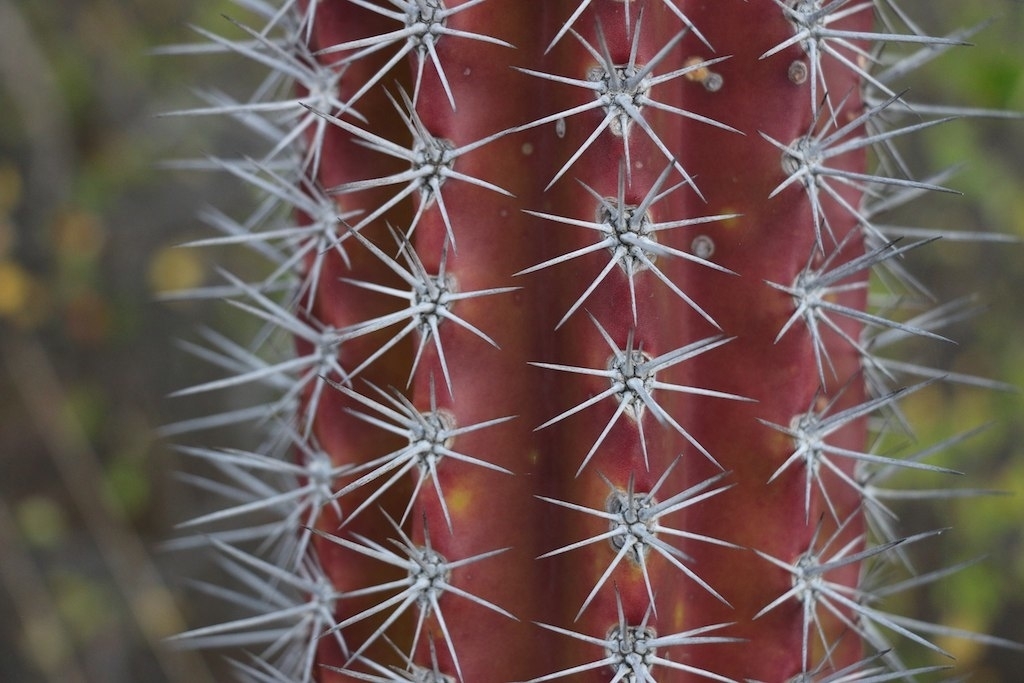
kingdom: Plantae
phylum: Tracheophyta
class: Magnoliopsida
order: Caryophyllales
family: Cactaceae
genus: Stenocereus
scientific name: Stenocereus griseus
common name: Tall candelabra cactus
